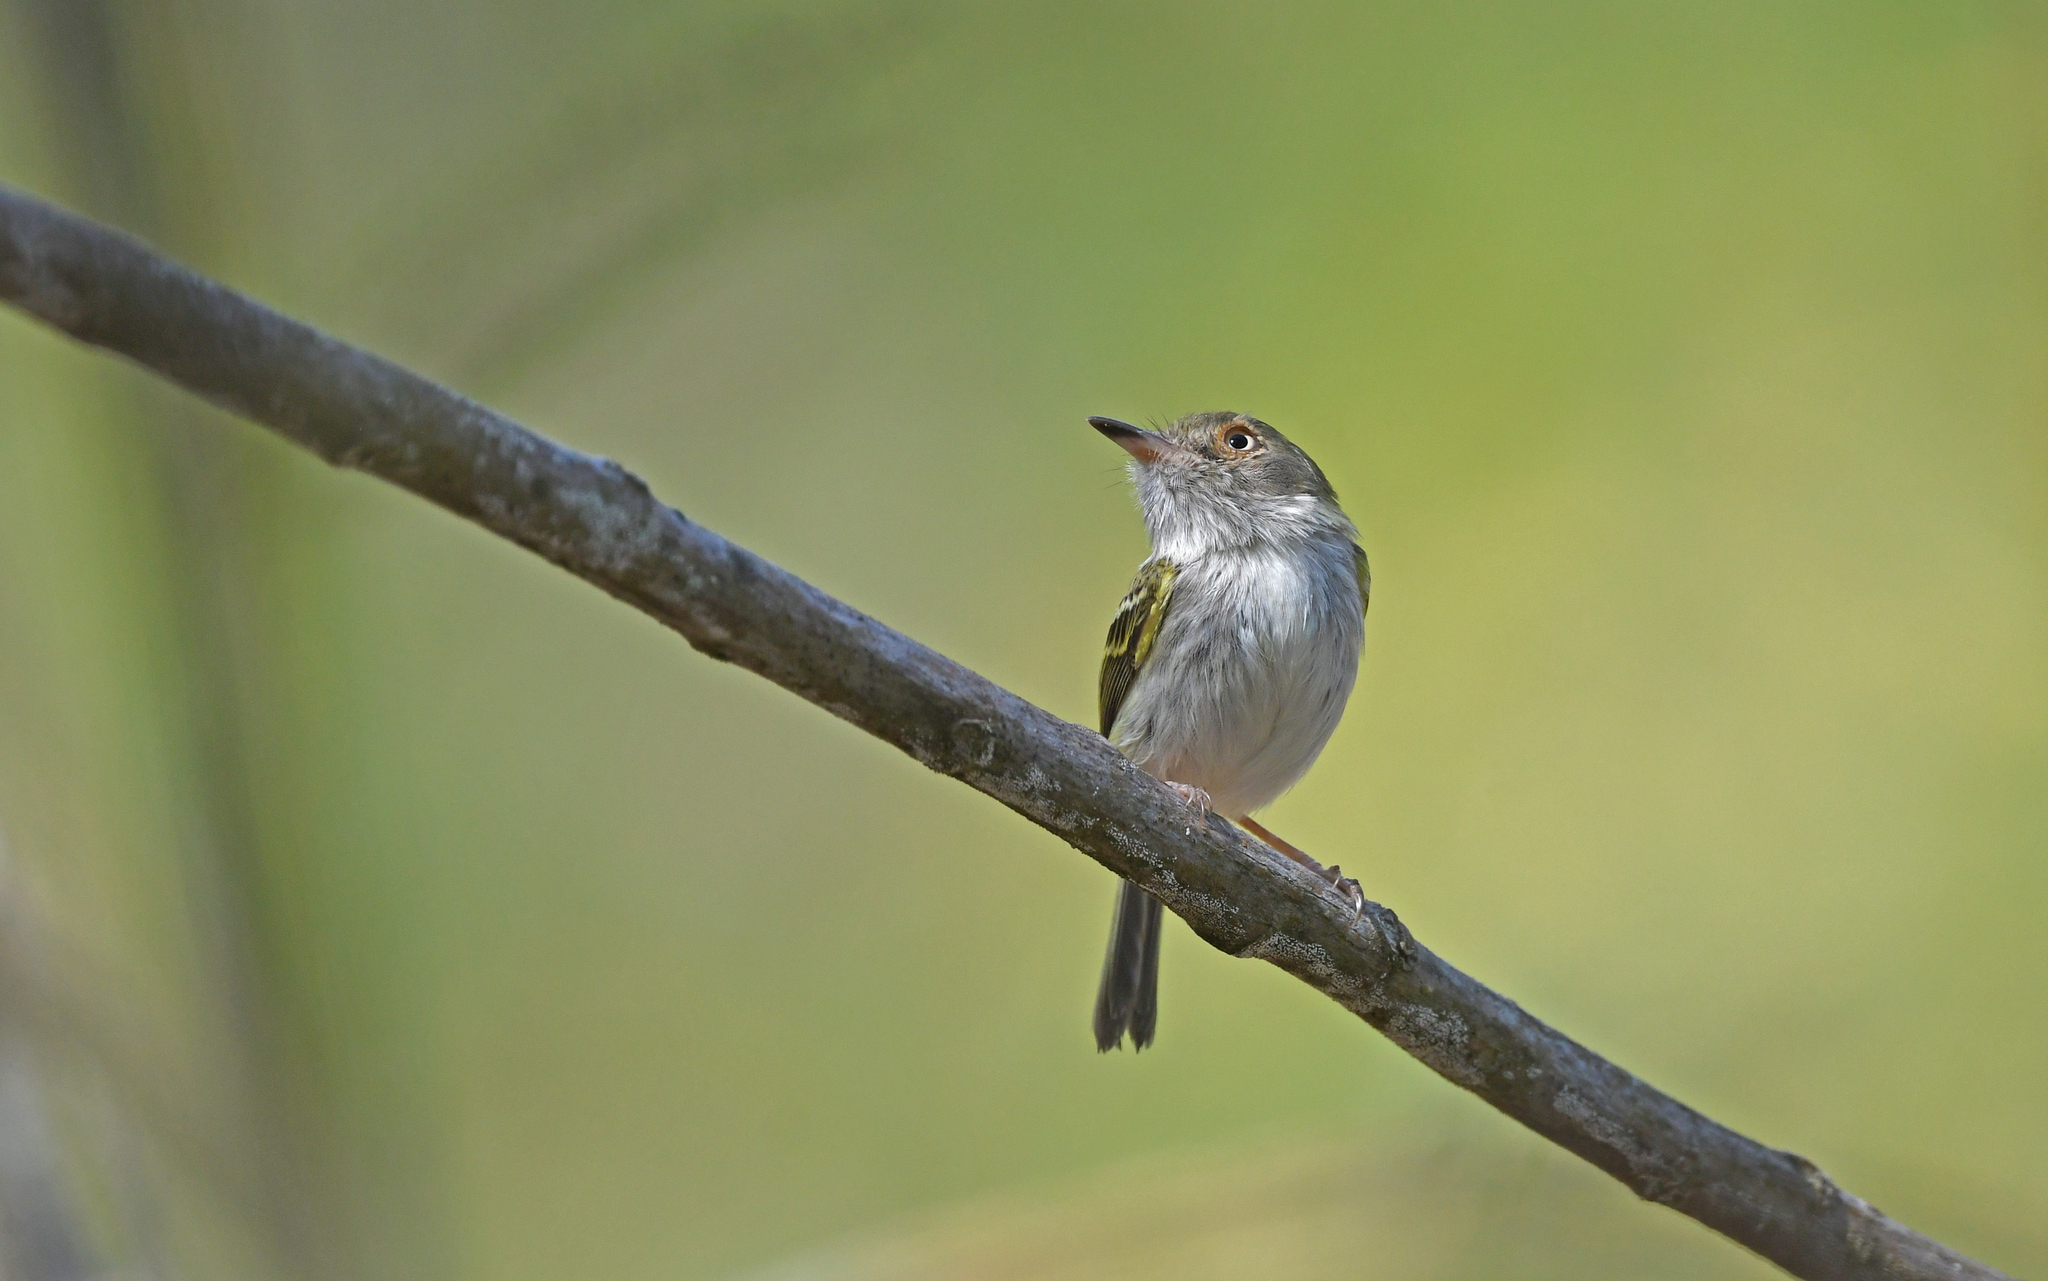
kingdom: Animalia
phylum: Chordata
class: Aves
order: Passeriformes
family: Tyrannidae
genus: Hemitriccus
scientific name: Hemitriccus margaritaceiventer
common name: Pearly-vented tody-tyrant
